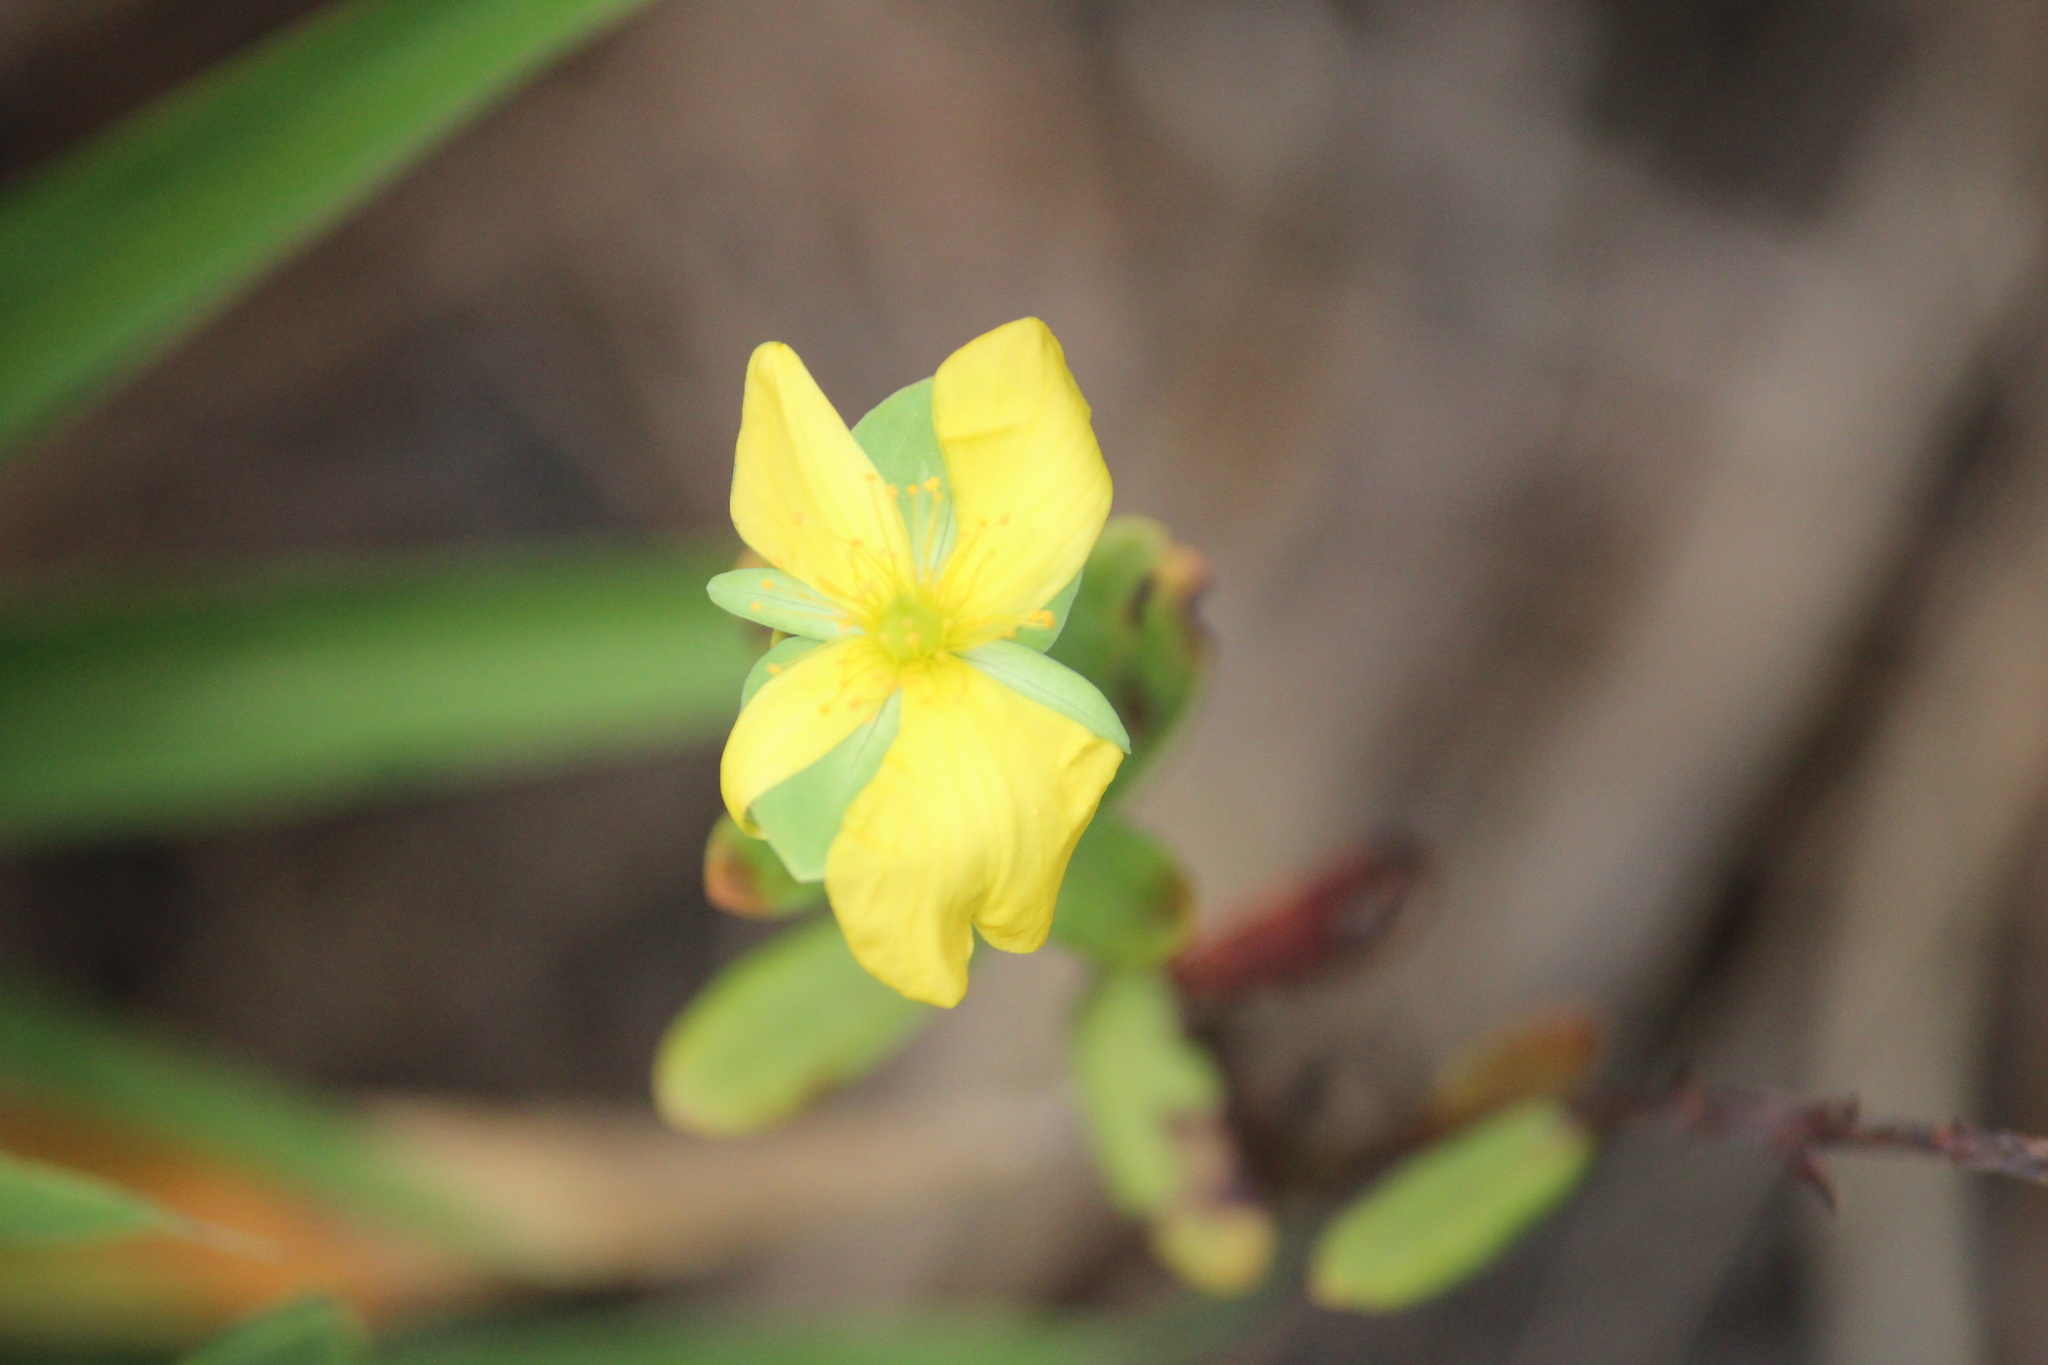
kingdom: Plantae
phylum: Tracheophyta
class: Magnoliopsida
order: Malpighiales
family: Hypericaceae
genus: Hypericum
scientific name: Hypericum hypericoides
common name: St. andrew's cross
